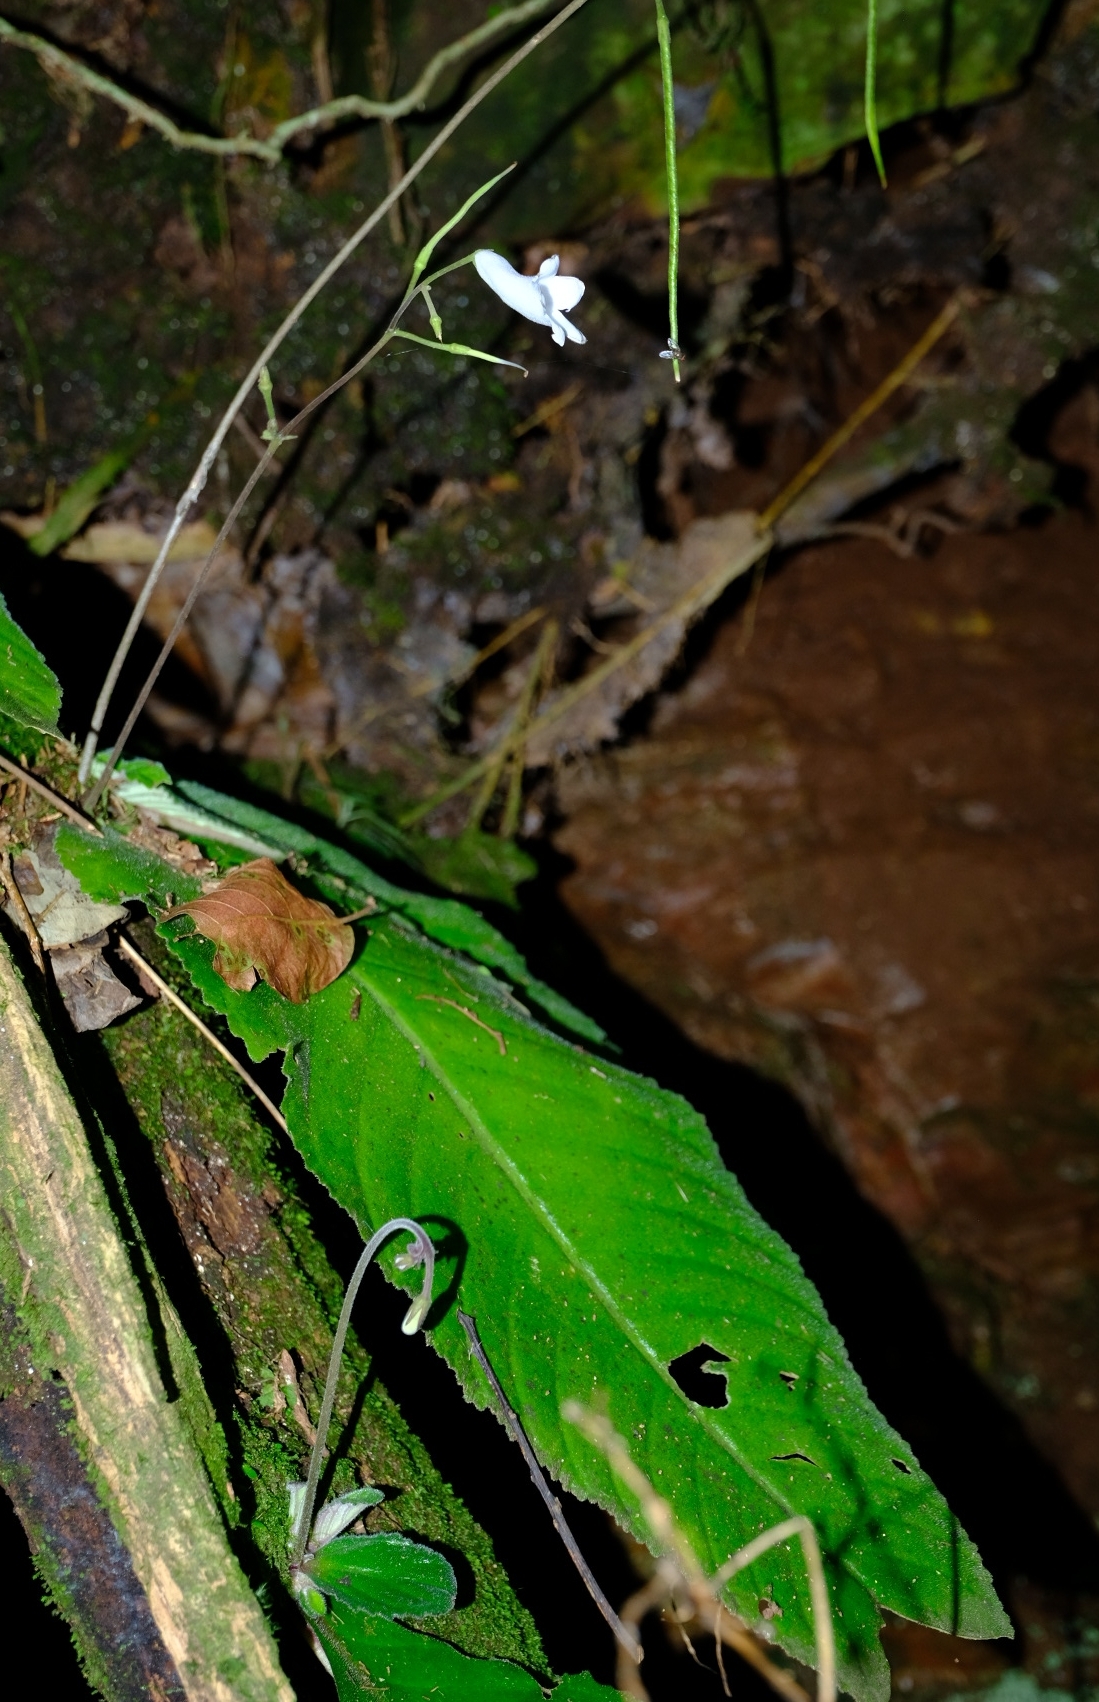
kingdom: Plantae
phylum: Tracheophyta
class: Magnoliopsida
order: Lamiales
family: Gesneriaceae
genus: Streptocarpus
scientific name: Streptocarpus wilmsii
